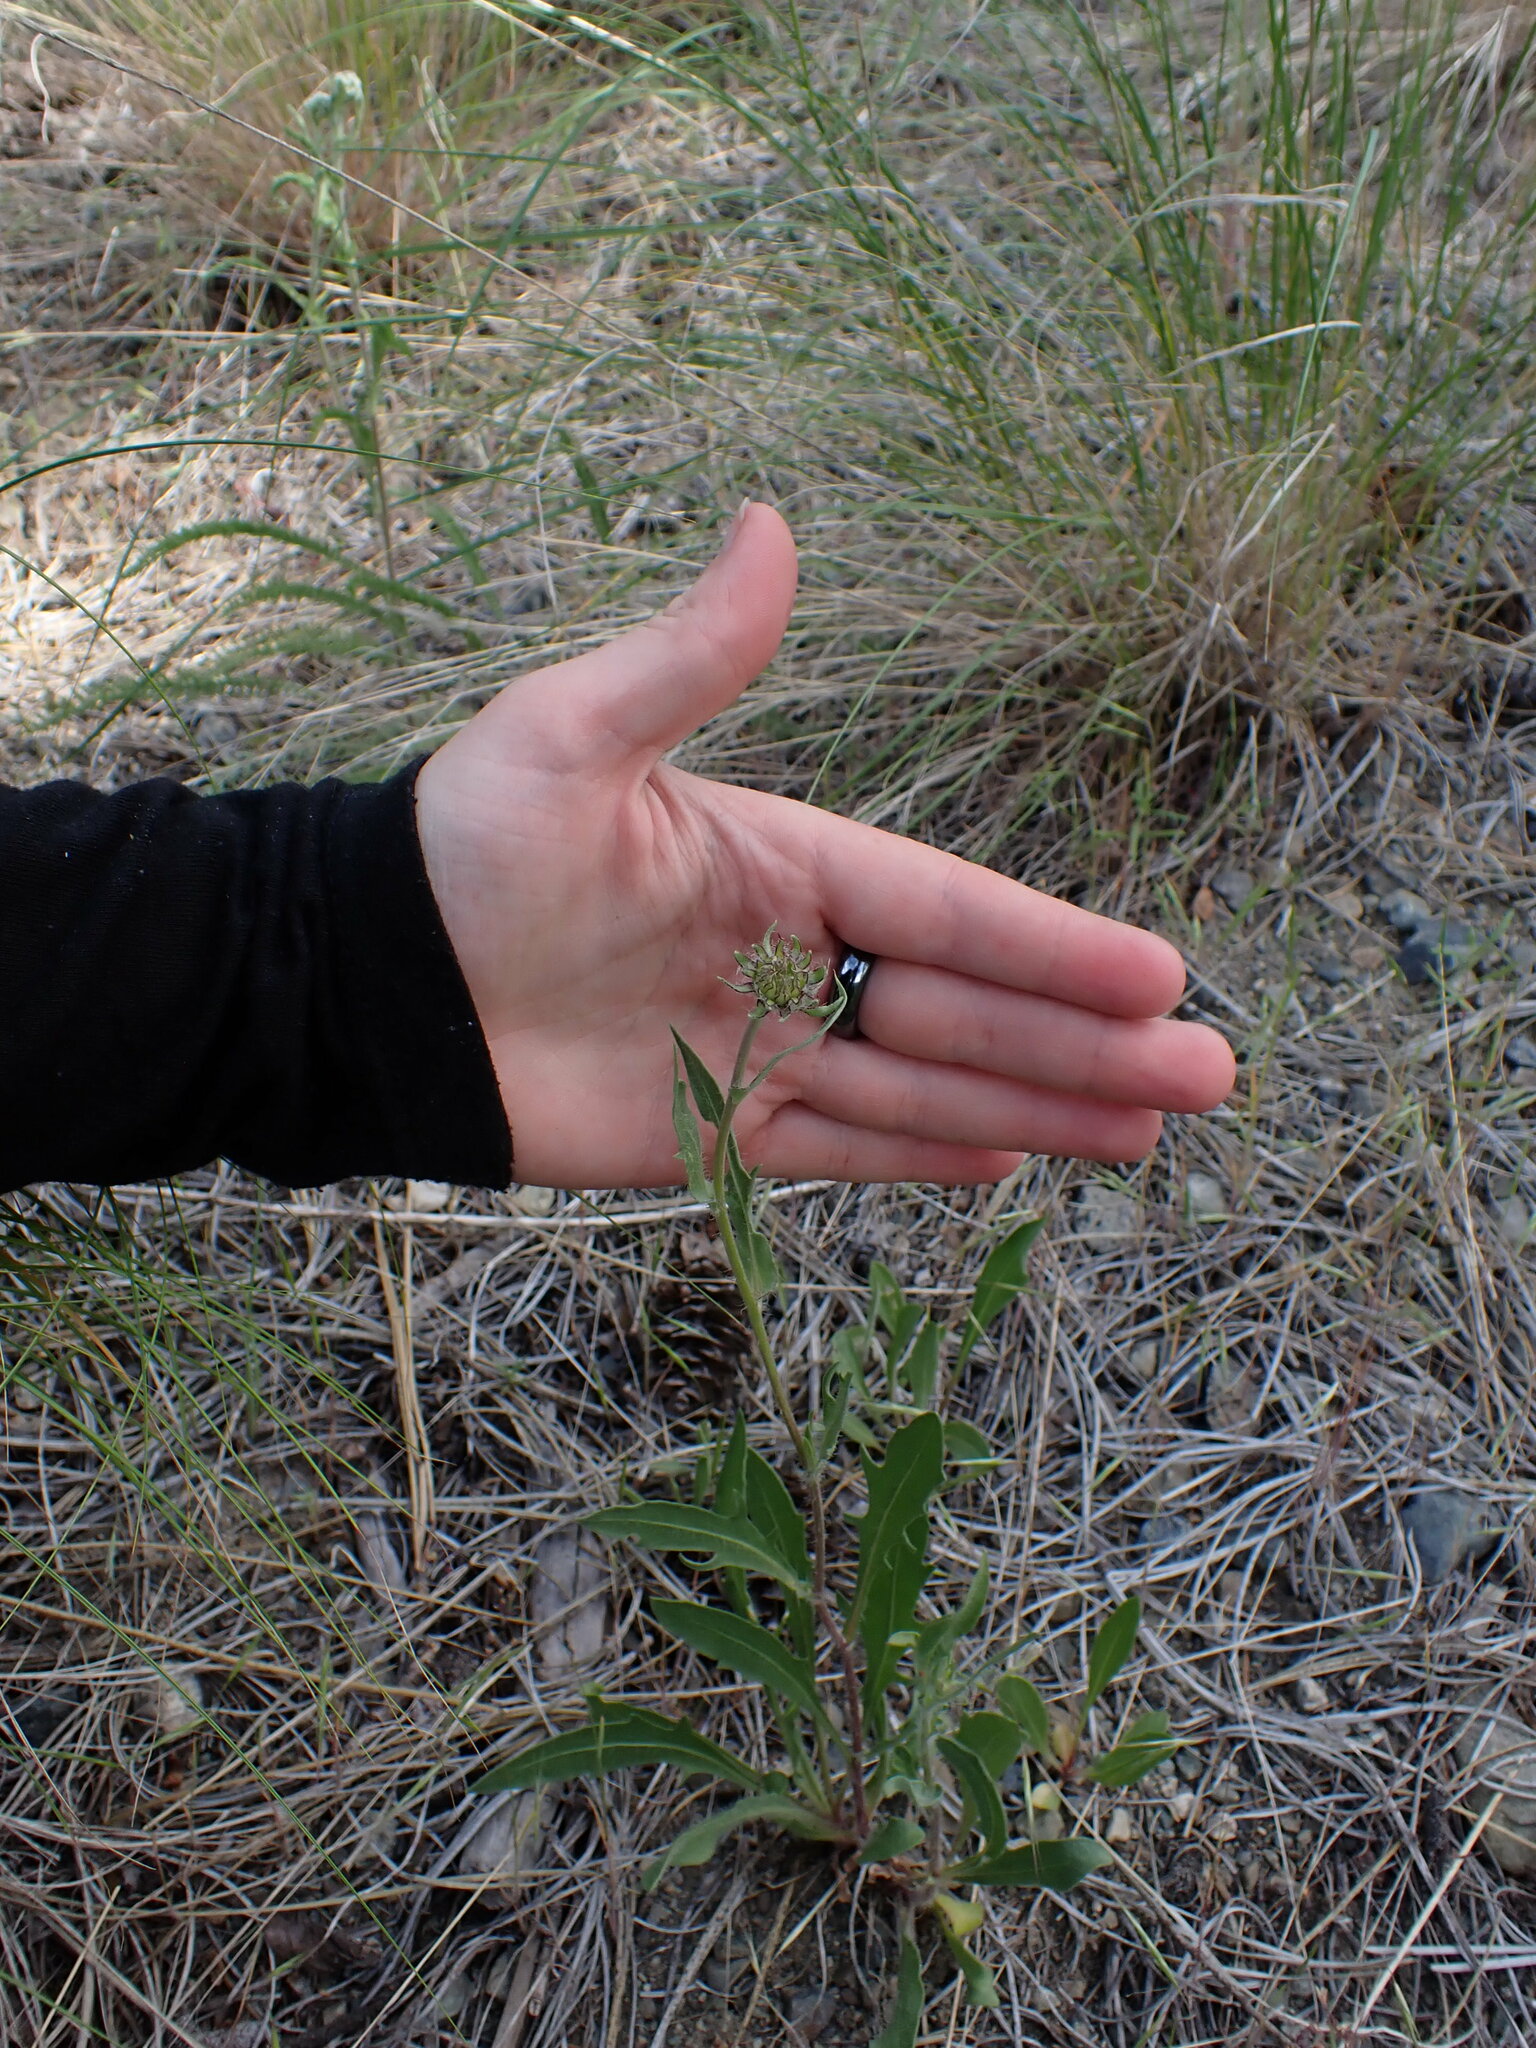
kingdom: Plantae
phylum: Tracheophyta
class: Magnoliopsida
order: Asterales
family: Asteraceae
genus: Gaillardia
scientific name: Gaillardia aristata
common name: Blanket-flower
